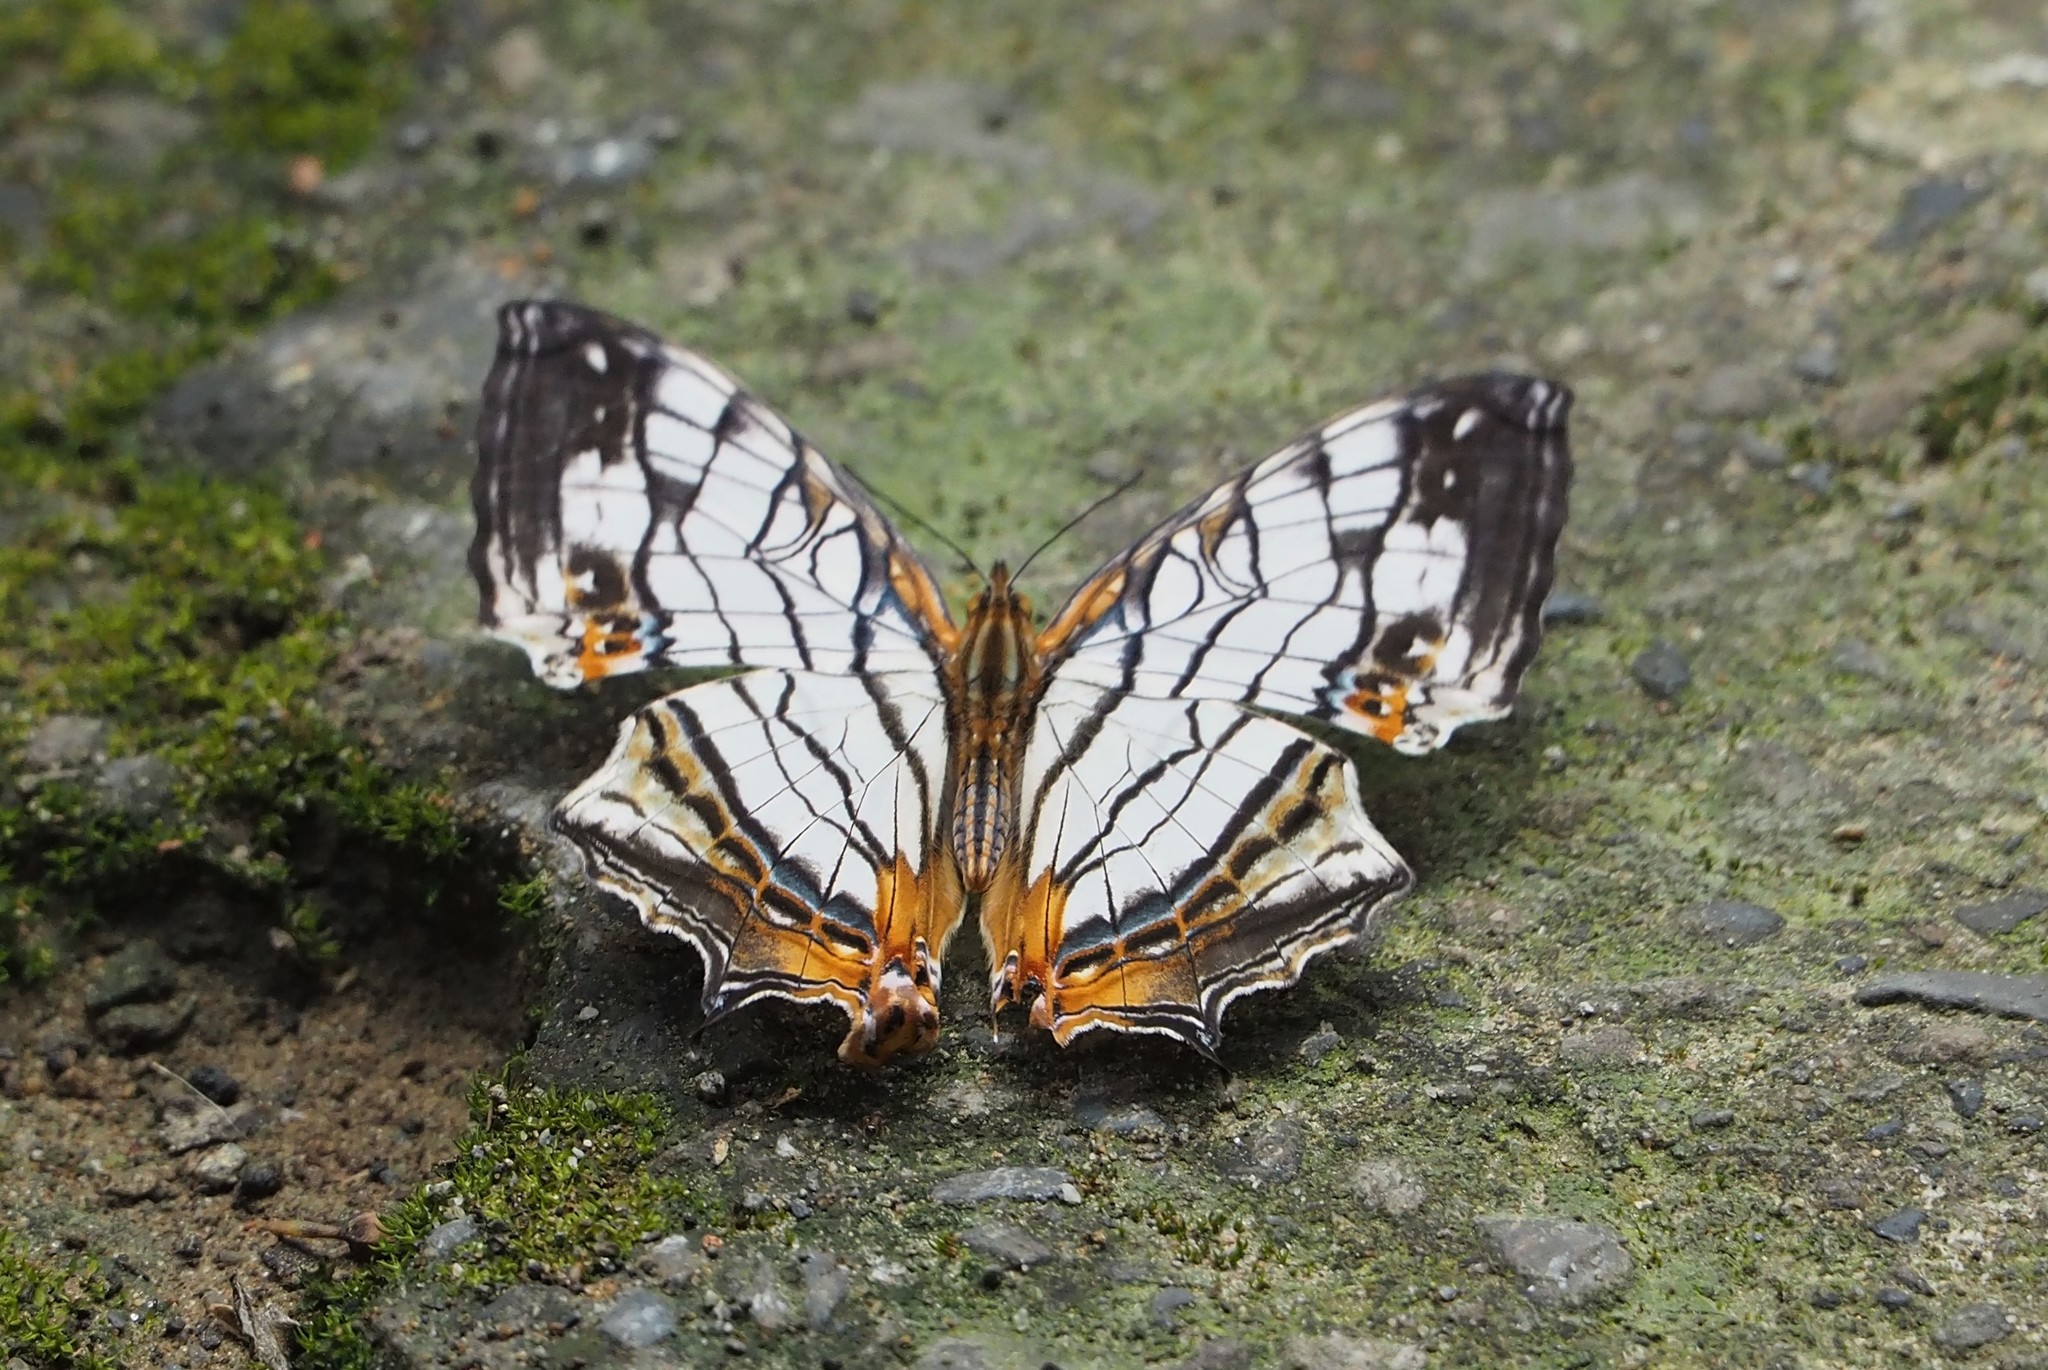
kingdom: Animalia
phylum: Arthropoda
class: Insecta
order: Lepidoptera
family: Nymphalidae
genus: Cyrestis
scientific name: Cyrestis thyodamas
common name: Common mapwing
